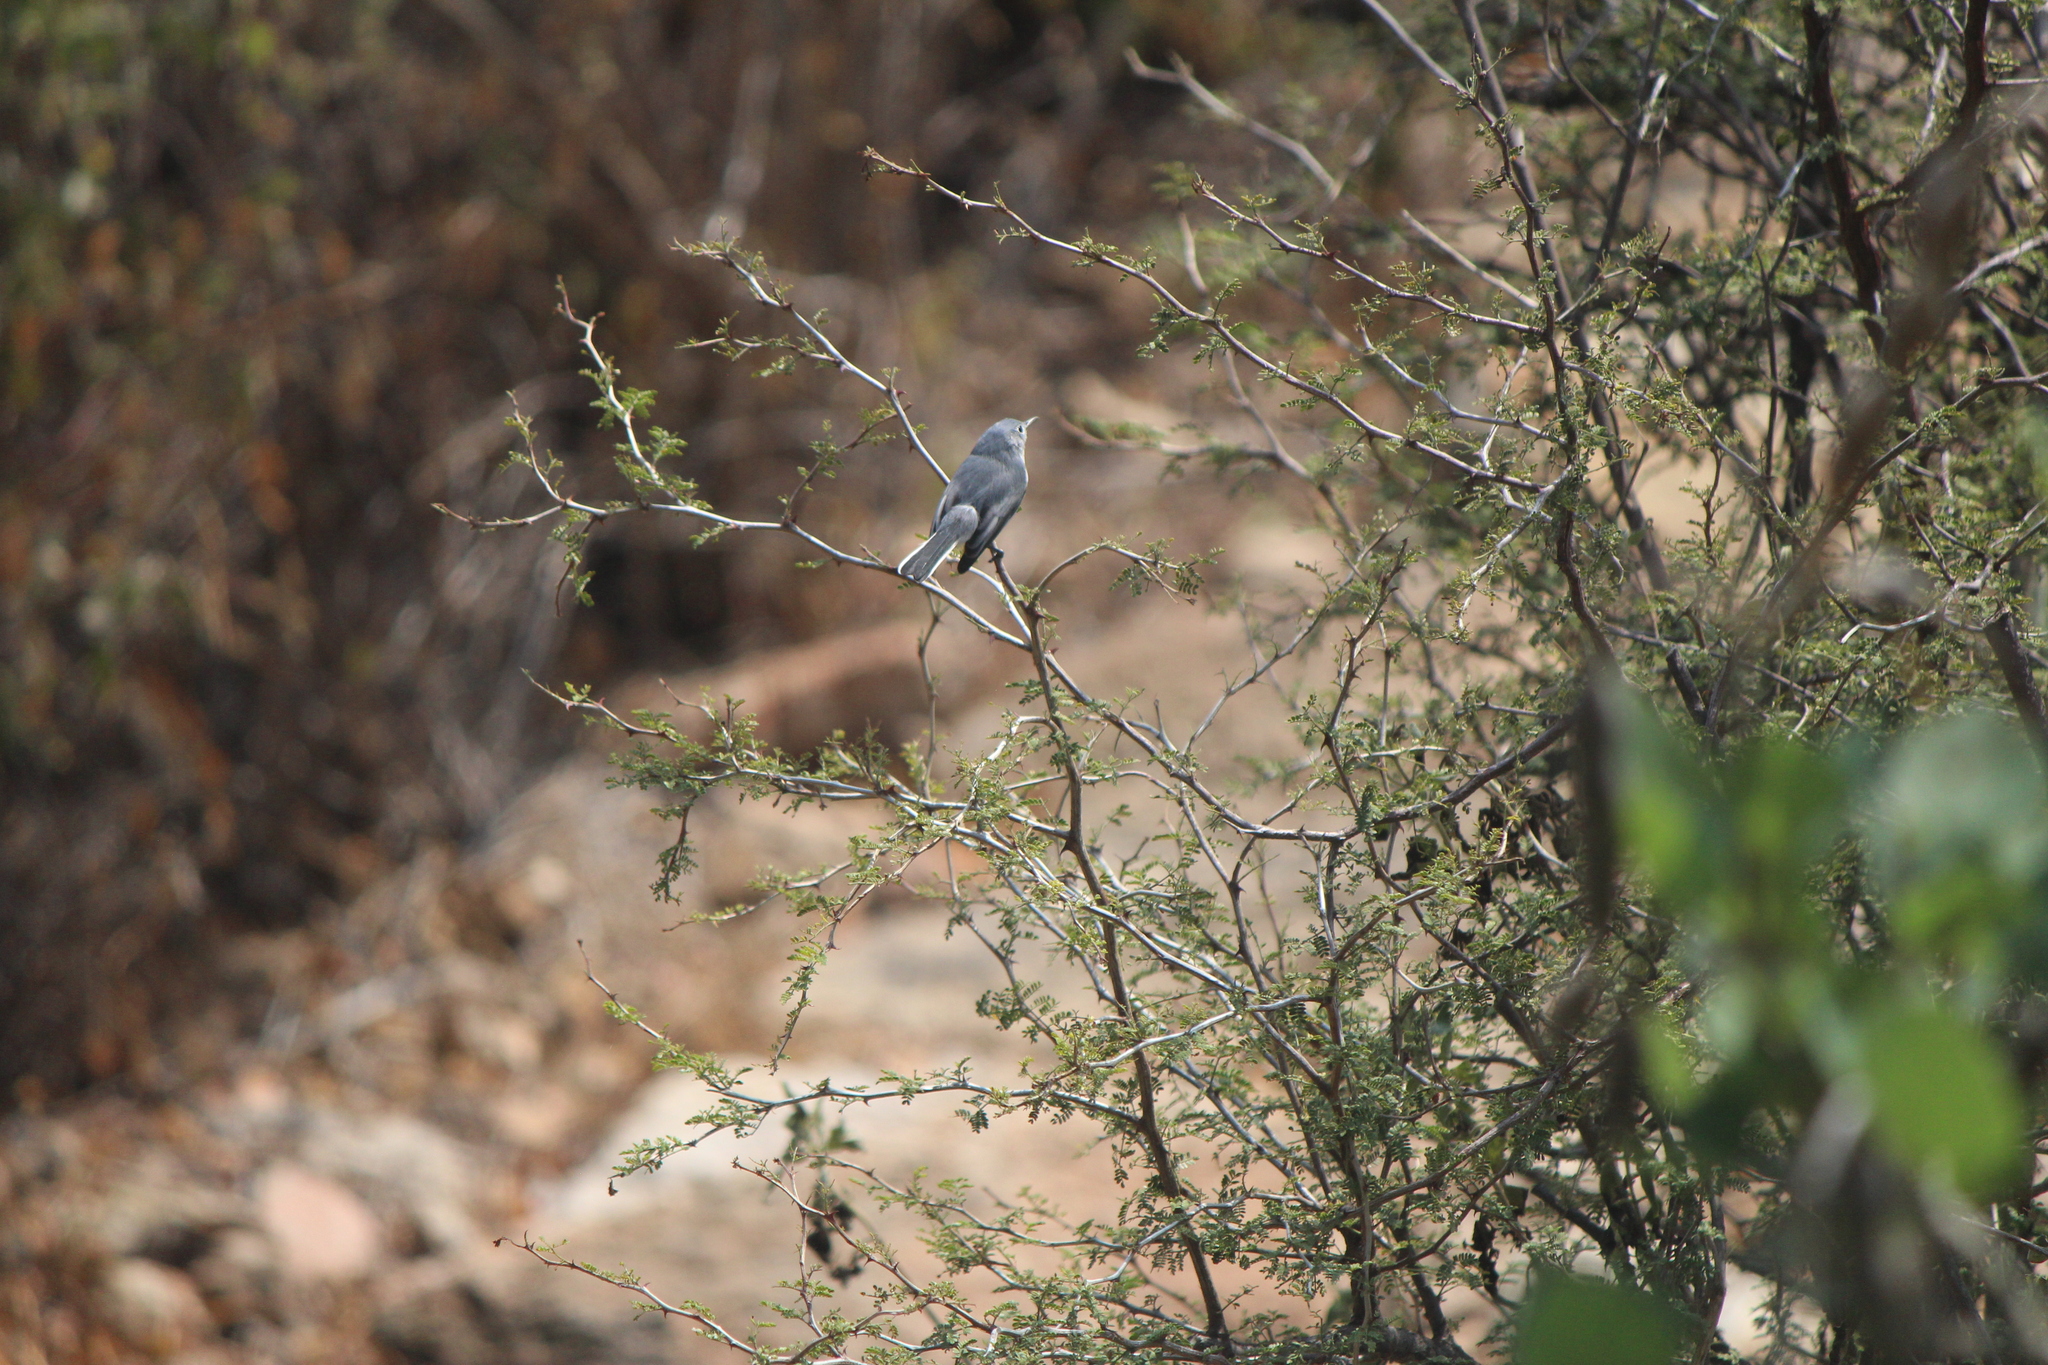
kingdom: Animalia
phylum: Chordata
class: Aves
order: Passeriformes
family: Polioptilidae
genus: Polioptila
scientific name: Polioptila caerulea
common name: Blue-gray gnatcatcher
